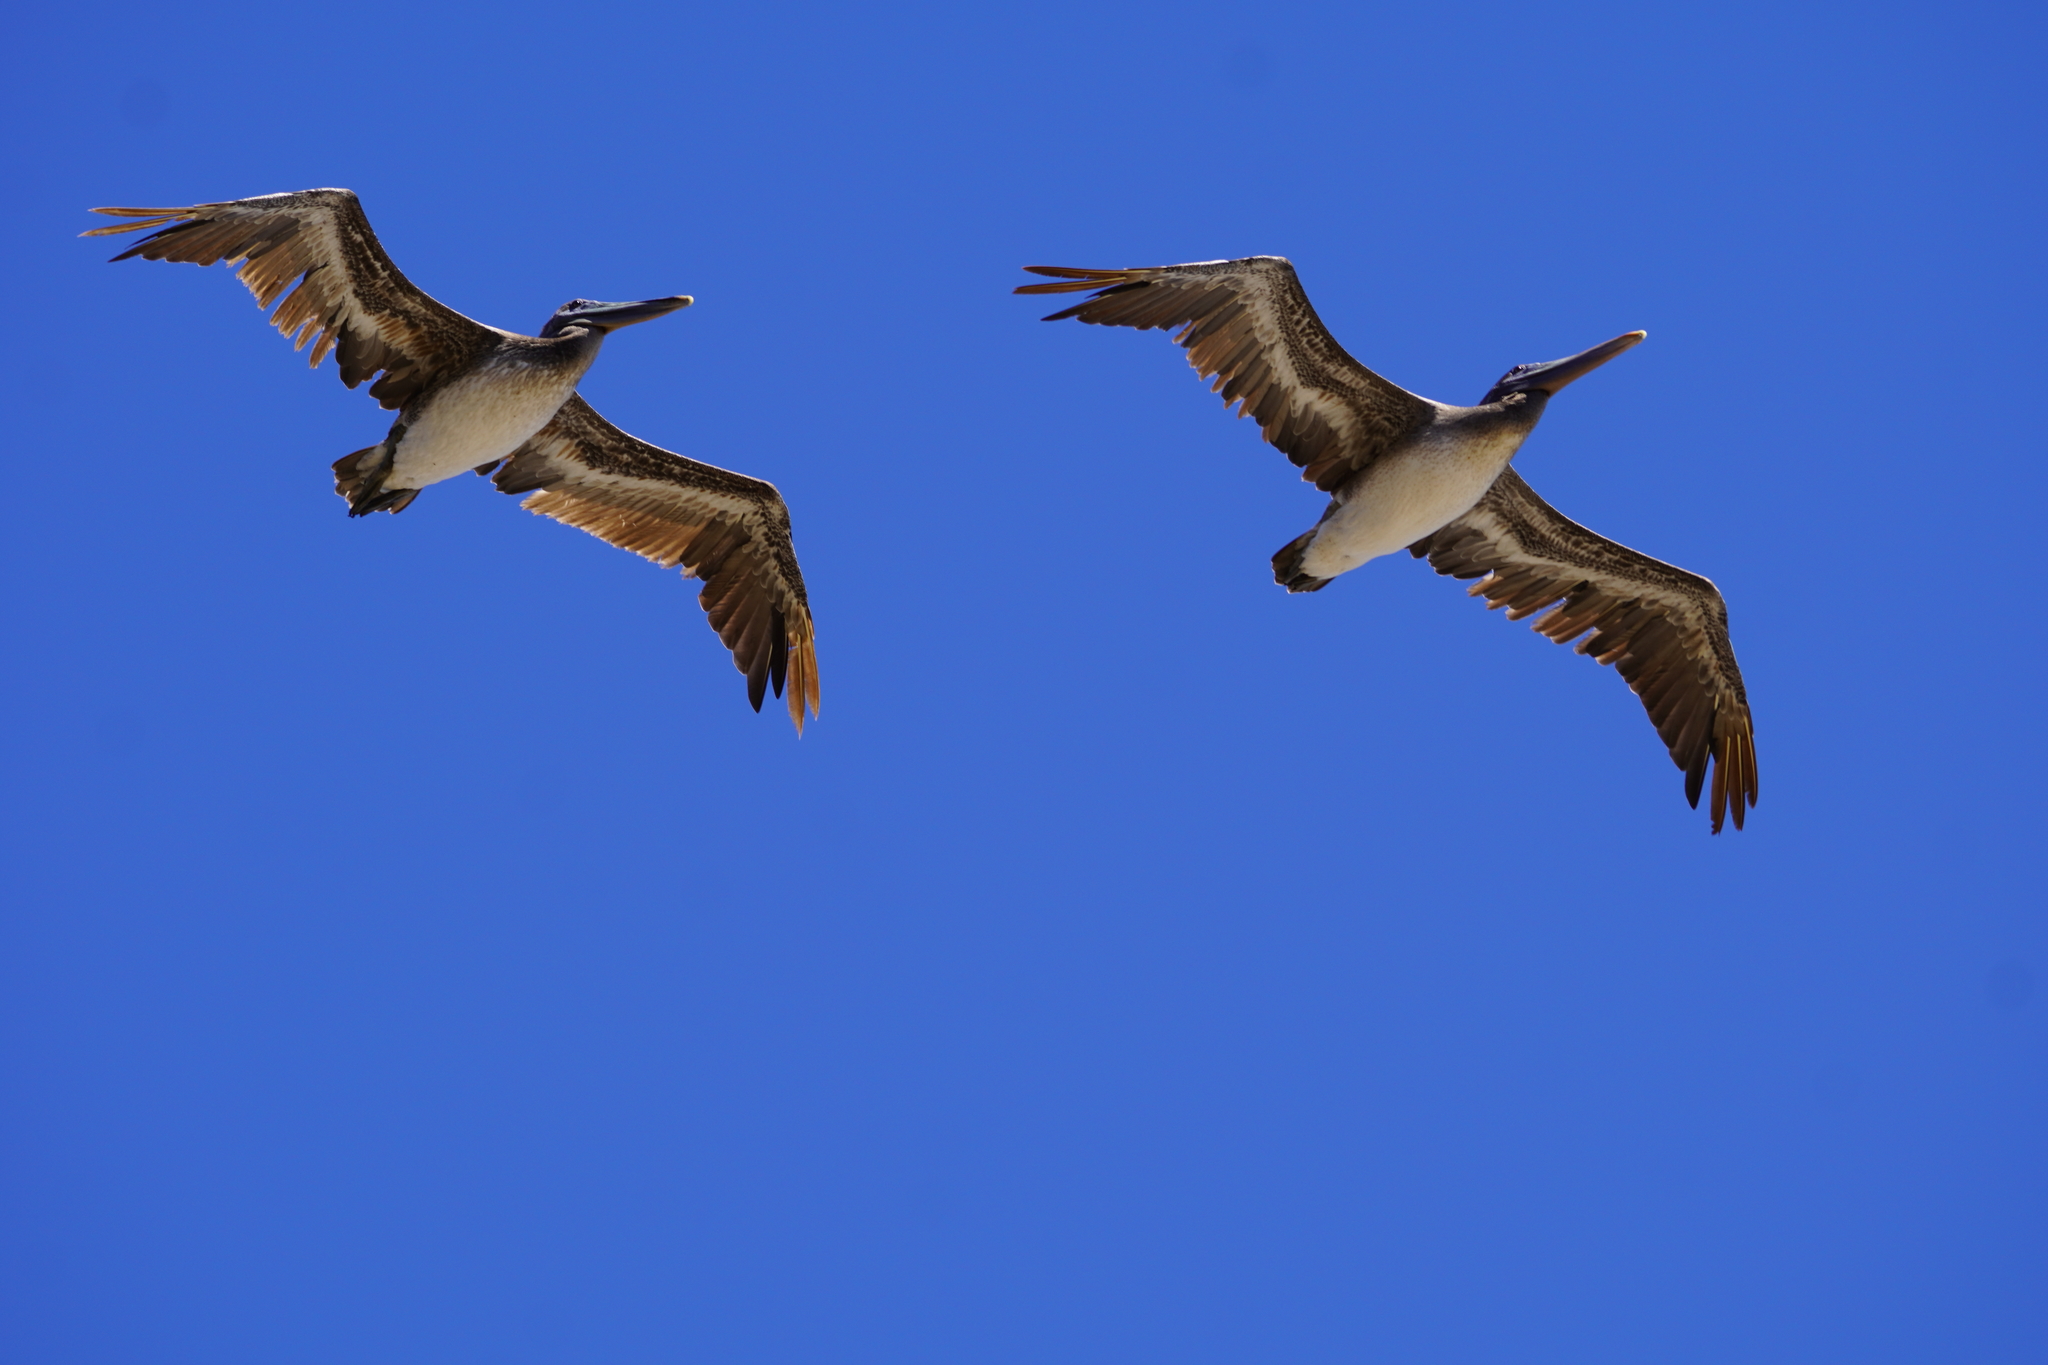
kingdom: Animalia
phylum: Chordata
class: Aves
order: Pelecaniformes
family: Pelecanidae
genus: Pelecanus
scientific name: Pelecanus occidentalis
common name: Brown pelican
